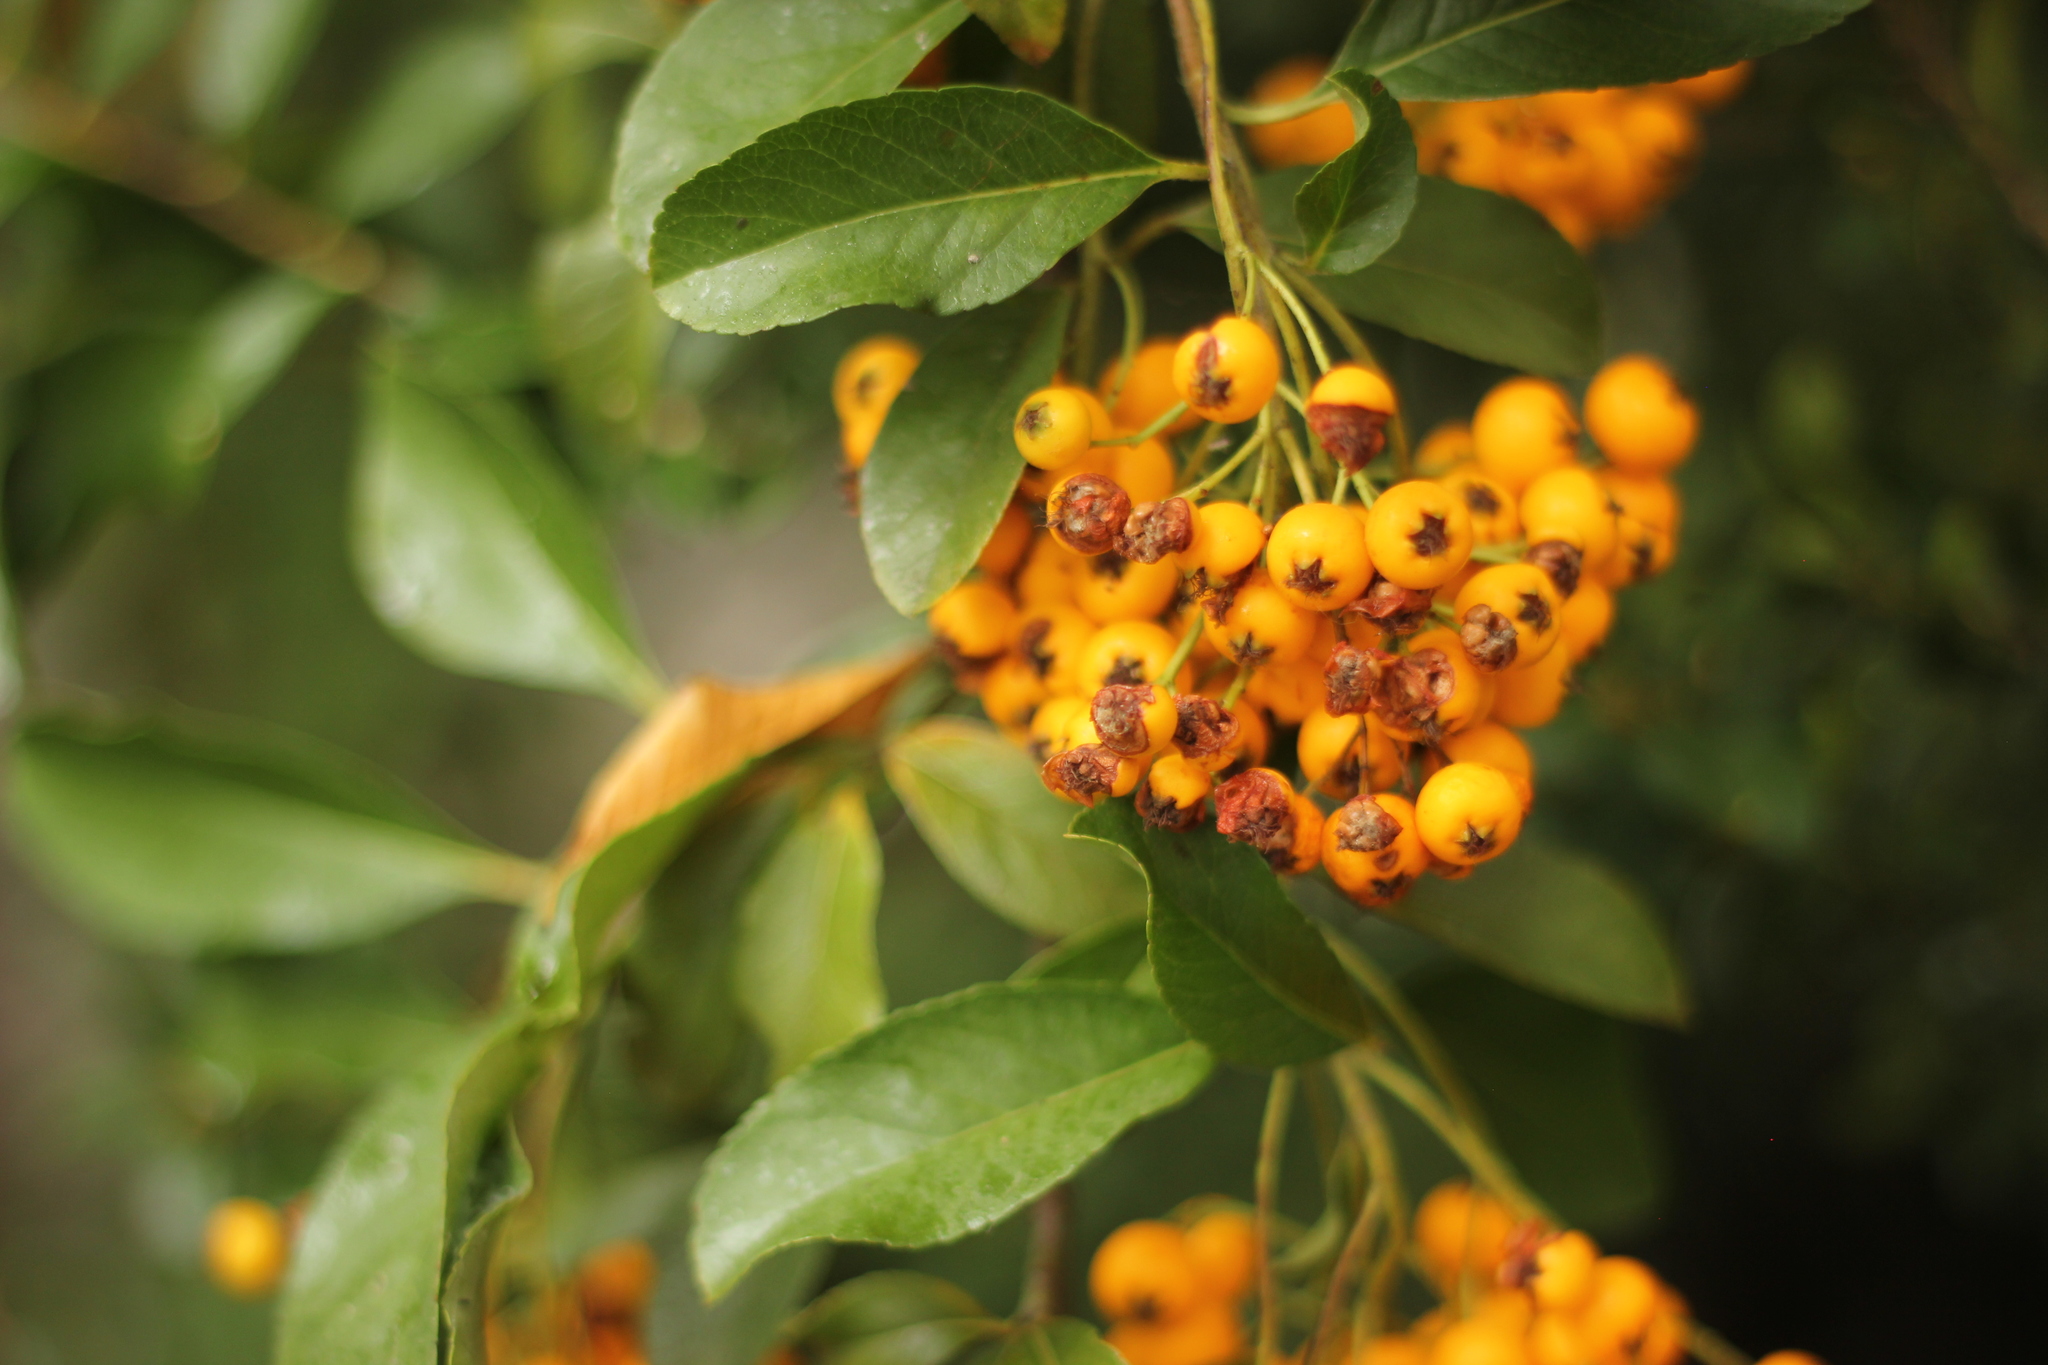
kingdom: Plantae
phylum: Tracheophyta
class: Magnoliopsida
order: Rosales
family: Rosaceae
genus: Pyracantha
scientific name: Pyracantha coccinea
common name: Firethorn
